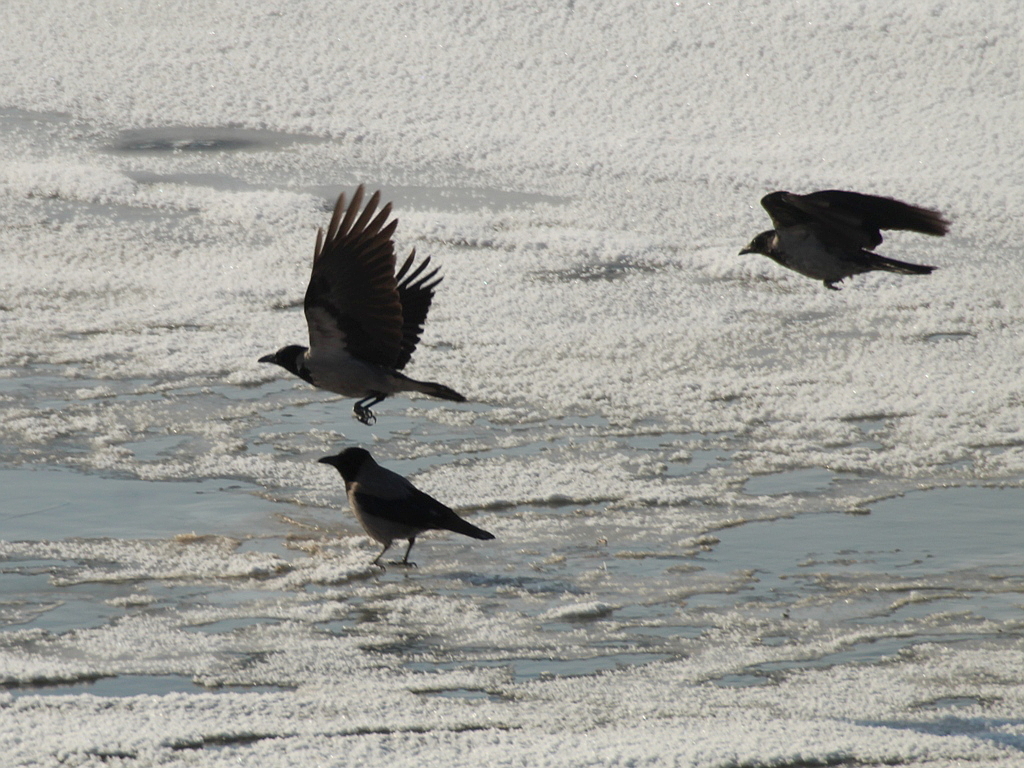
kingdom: Animalia
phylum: Chordata
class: Aves
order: Passeriformes
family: Corvidae
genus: Corvus
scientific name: Corvus cornix
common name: Hooded crow
